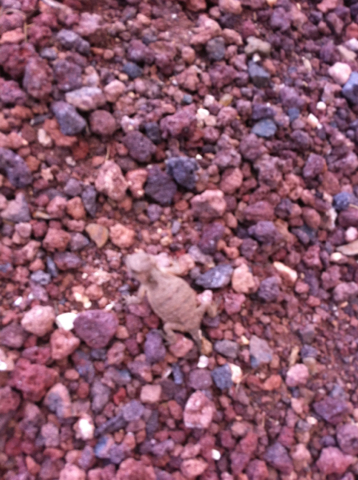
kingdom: Animalia
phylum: Chordata
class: Squamata
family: Phrynosomatidae
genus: Phrynosoma
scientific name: Phrynosoma hernandesi
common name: Greater short-horned lizard
